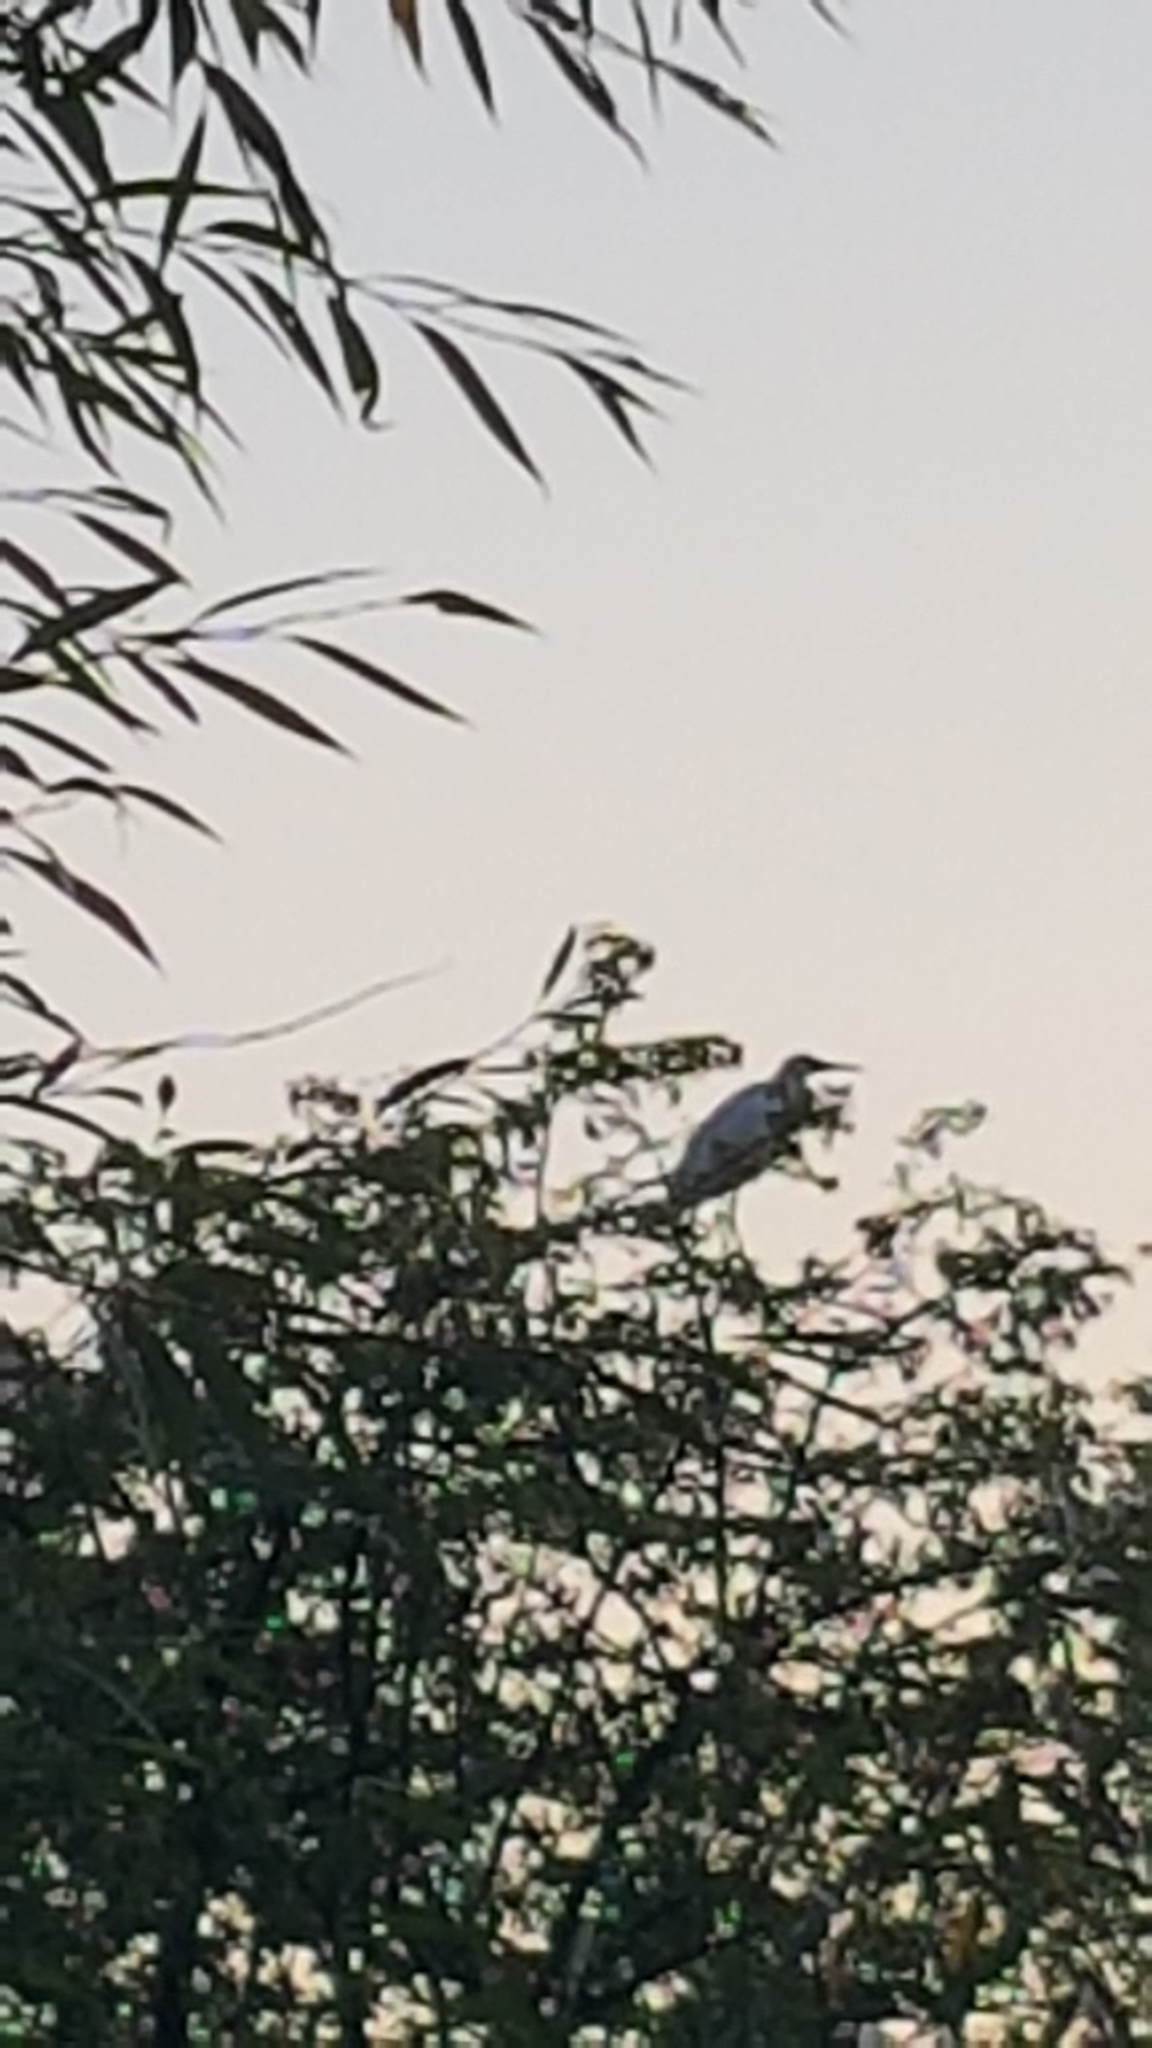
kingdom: Animalia
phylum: Chordata
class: Aves
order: Pelecaniformes
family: Ardeidae
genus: Egretta
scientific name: Egretta garzetta
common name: Little egret
